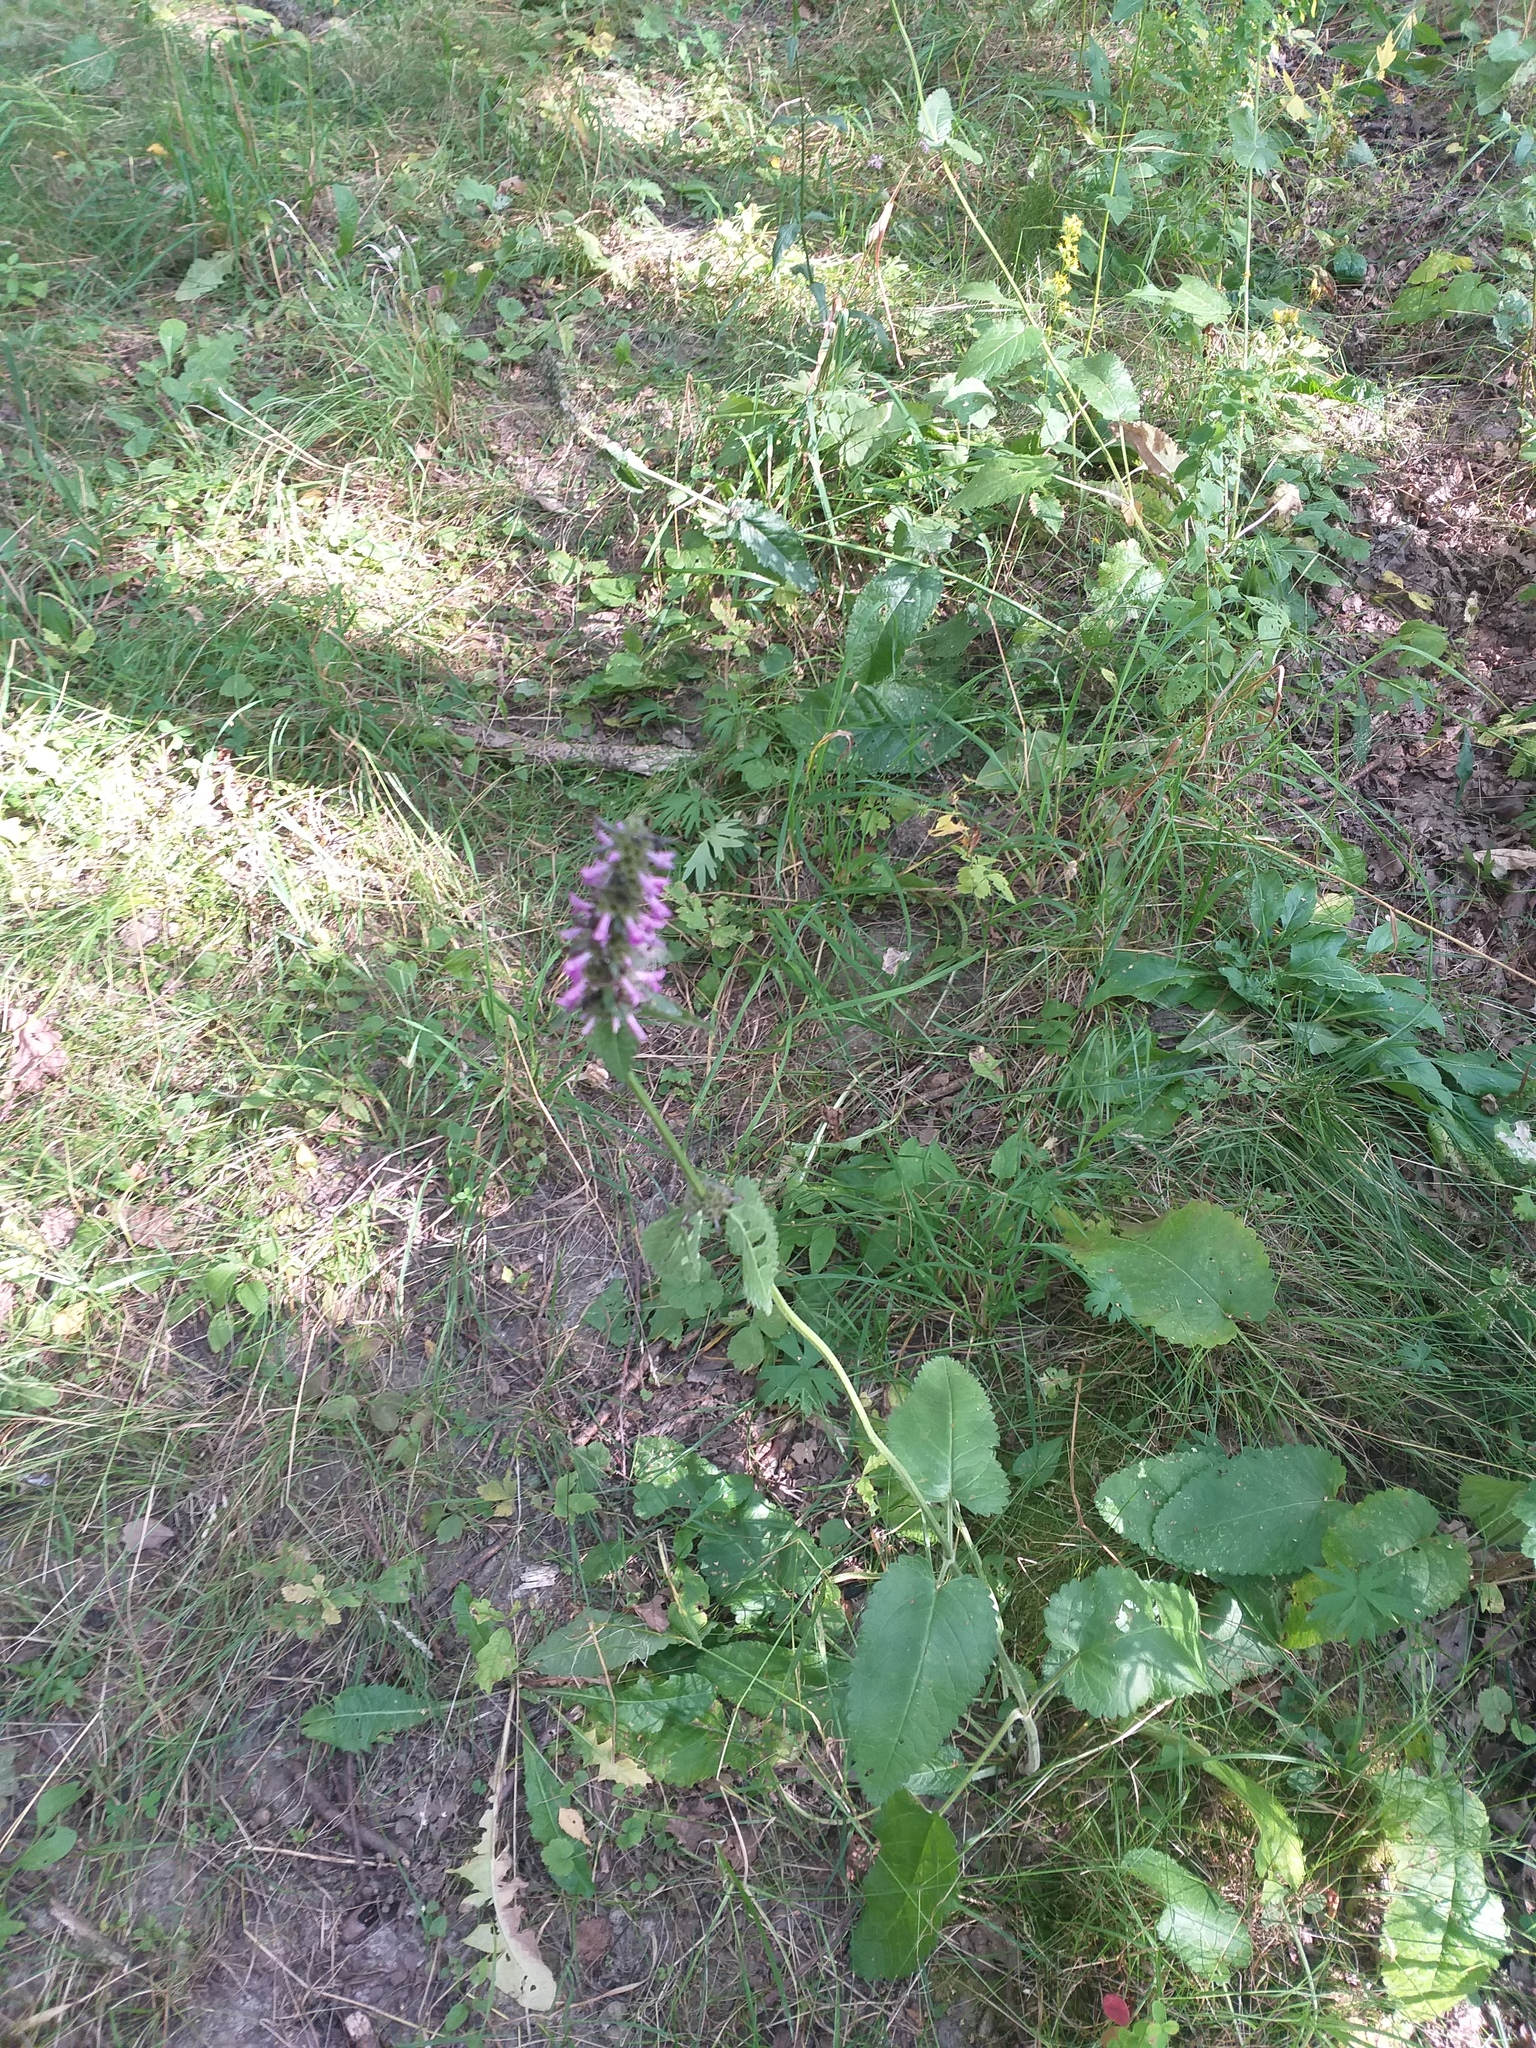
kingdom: Plantae
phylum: Tracheophyta
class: Magnoliopsida
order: Lamiales
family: Lamiaceae
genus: Betonica
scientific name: Betonica officinalis
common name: Bishop's-wort
